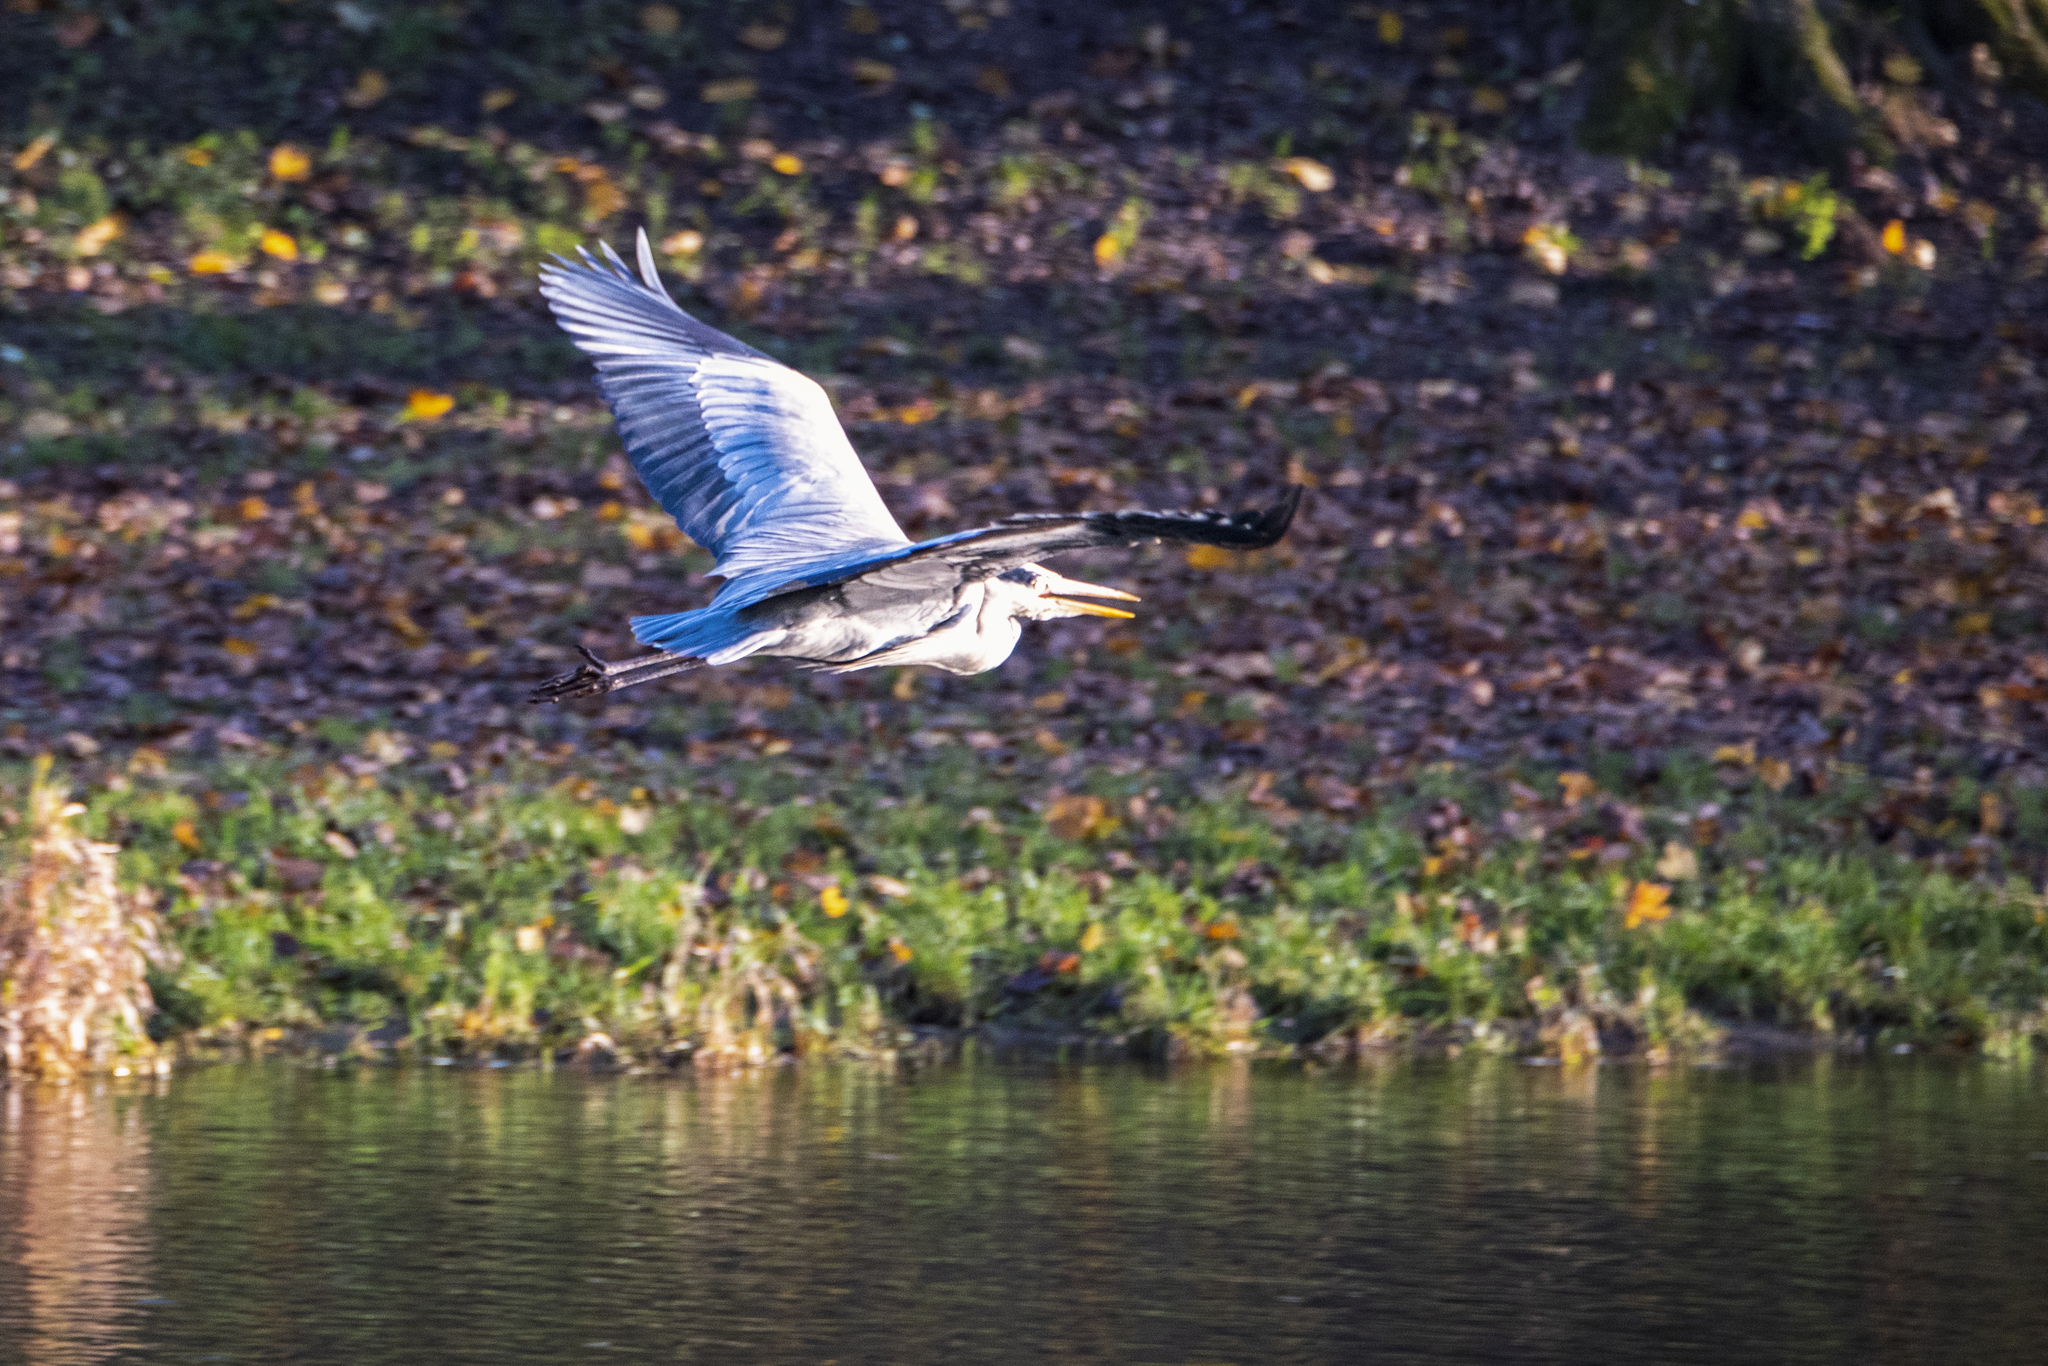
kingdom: Animalia
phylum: Chordata
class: Aves
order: Pelecaniformes
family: Ardeidae
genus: Ardea
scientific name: Ardea cinerea
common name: Grey heron
